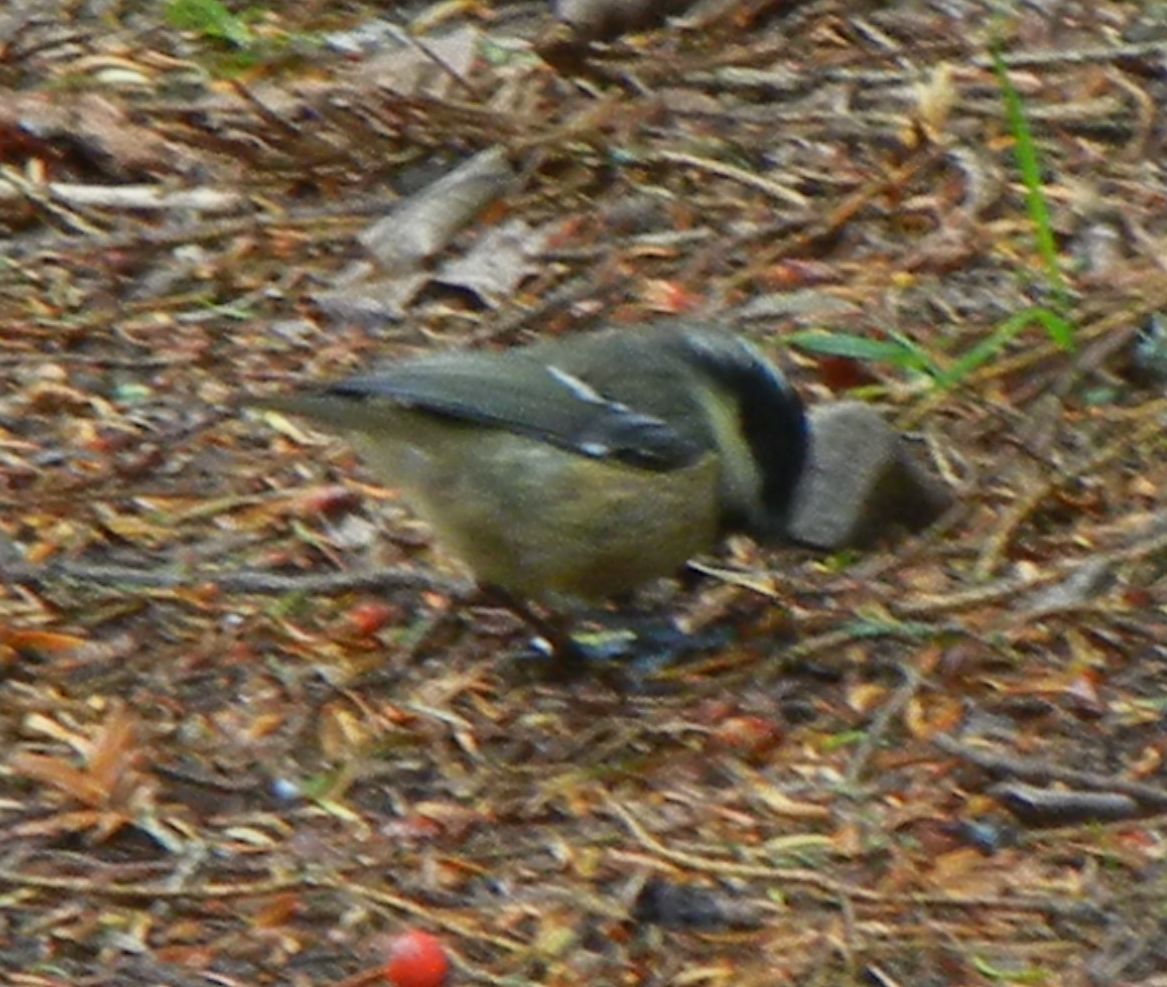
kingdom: Animalia
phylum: Chordata
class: Aves
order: Passeriformes
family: Paridae
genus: Periparus
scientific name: Periparus ater
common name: Coal tit
